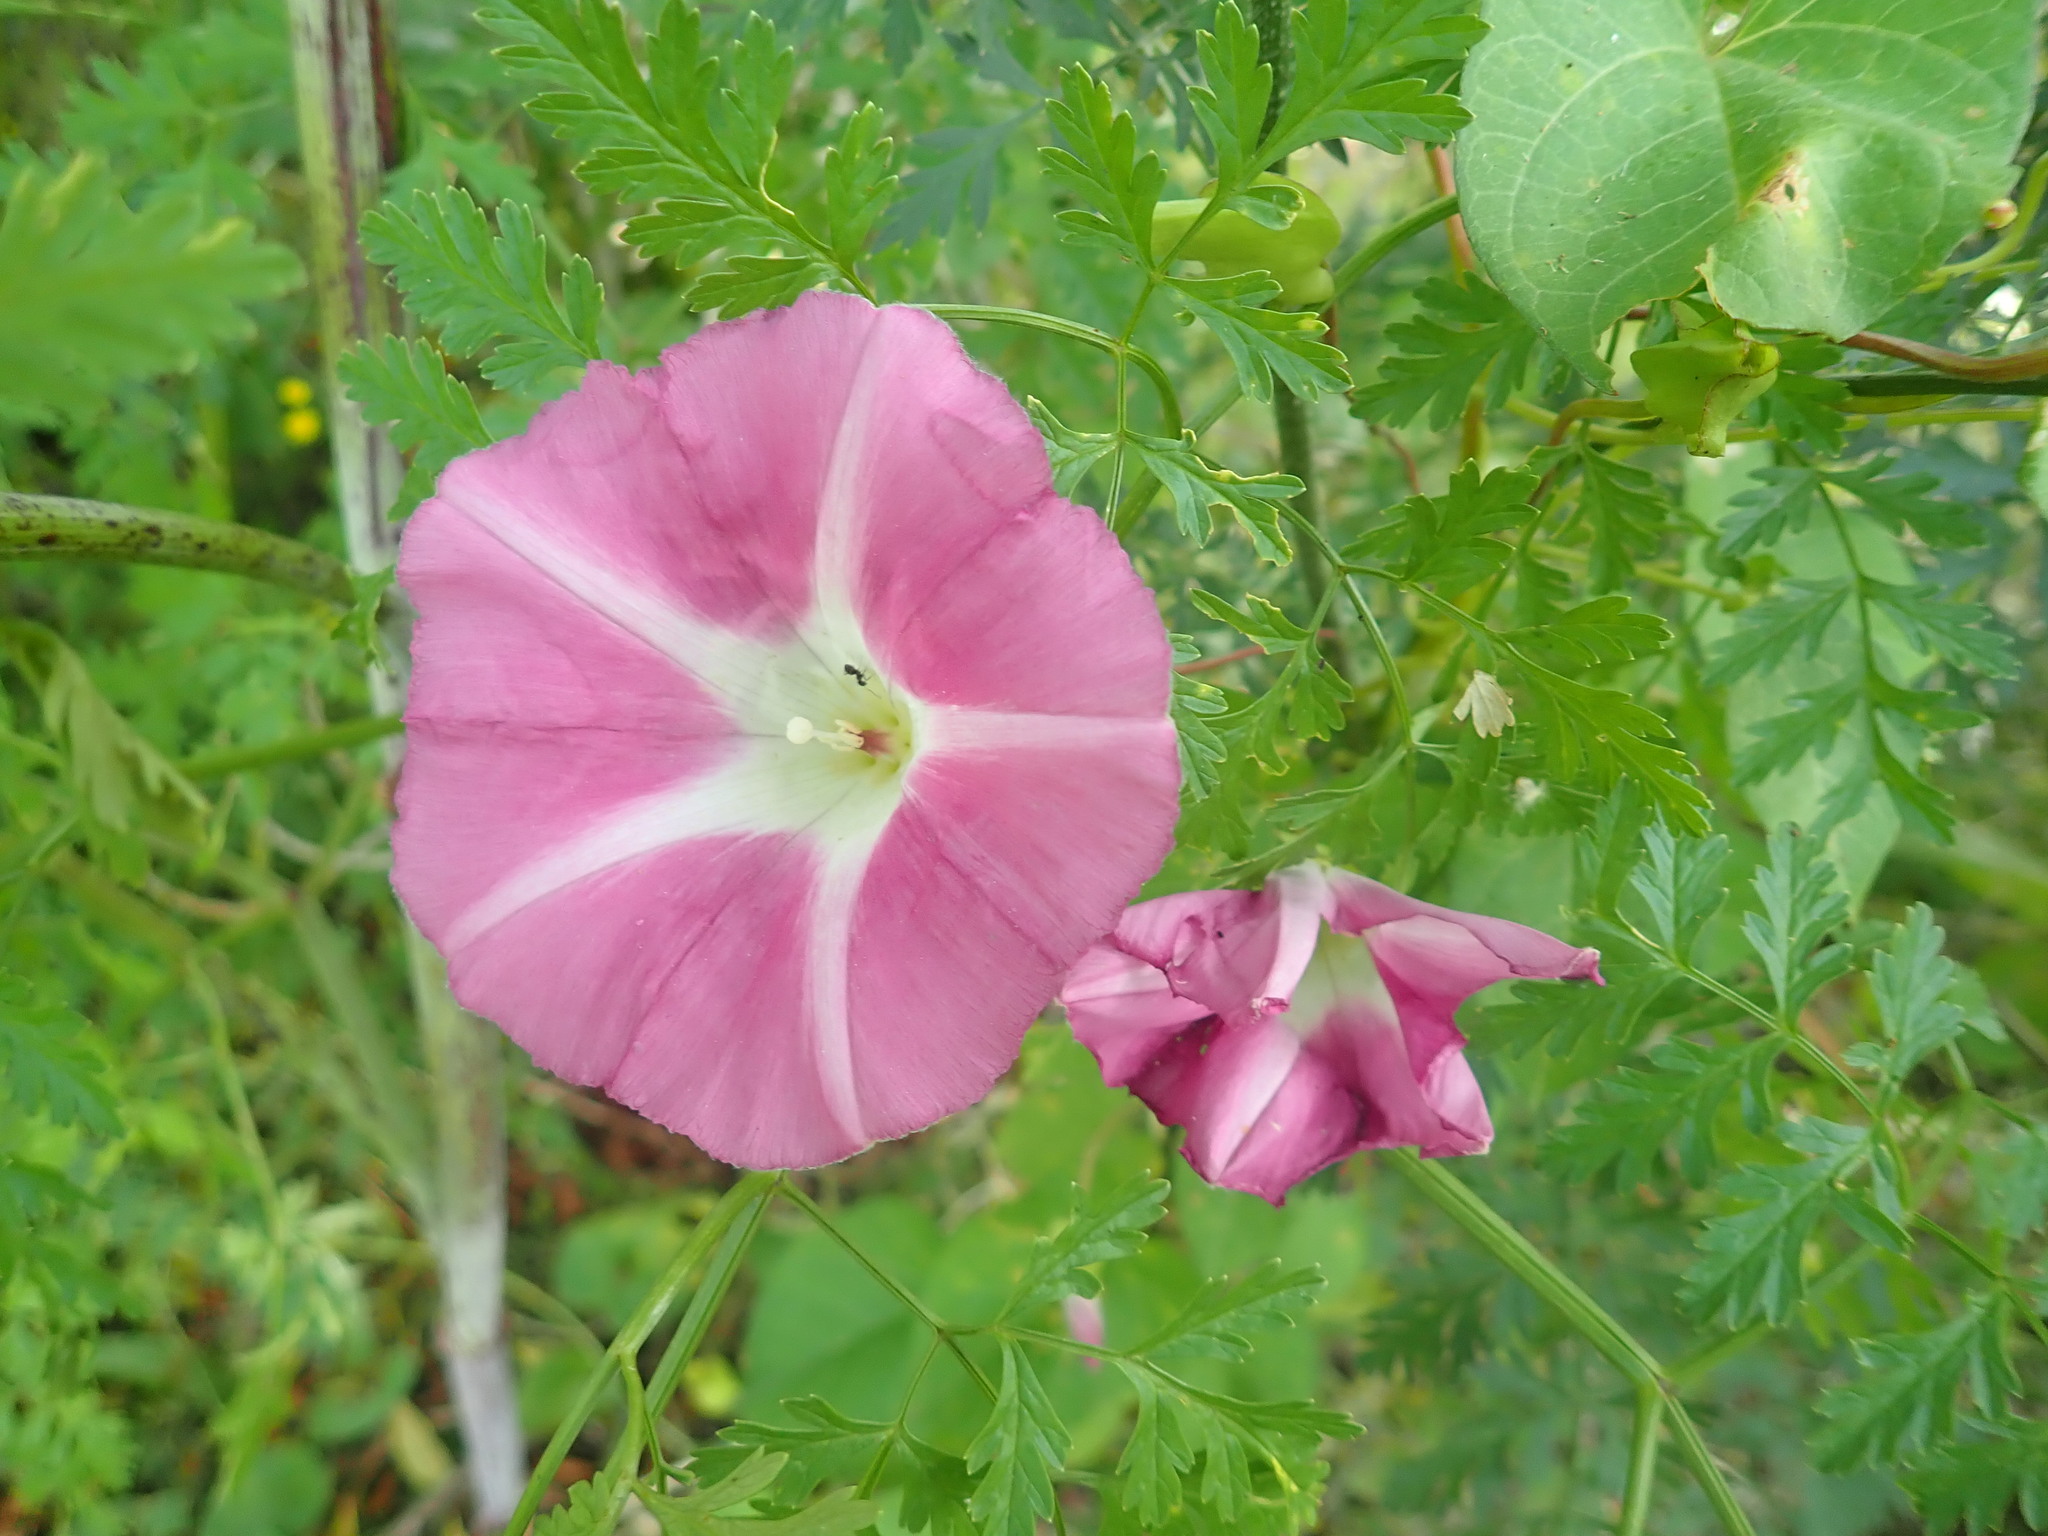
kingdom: Plantae
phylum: Tracheophyta
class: Magnoliopsida
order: Solanales
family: Convolvulaceae
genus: Calystegia
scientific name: Calystegia sepium
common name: Hedge bindweed
